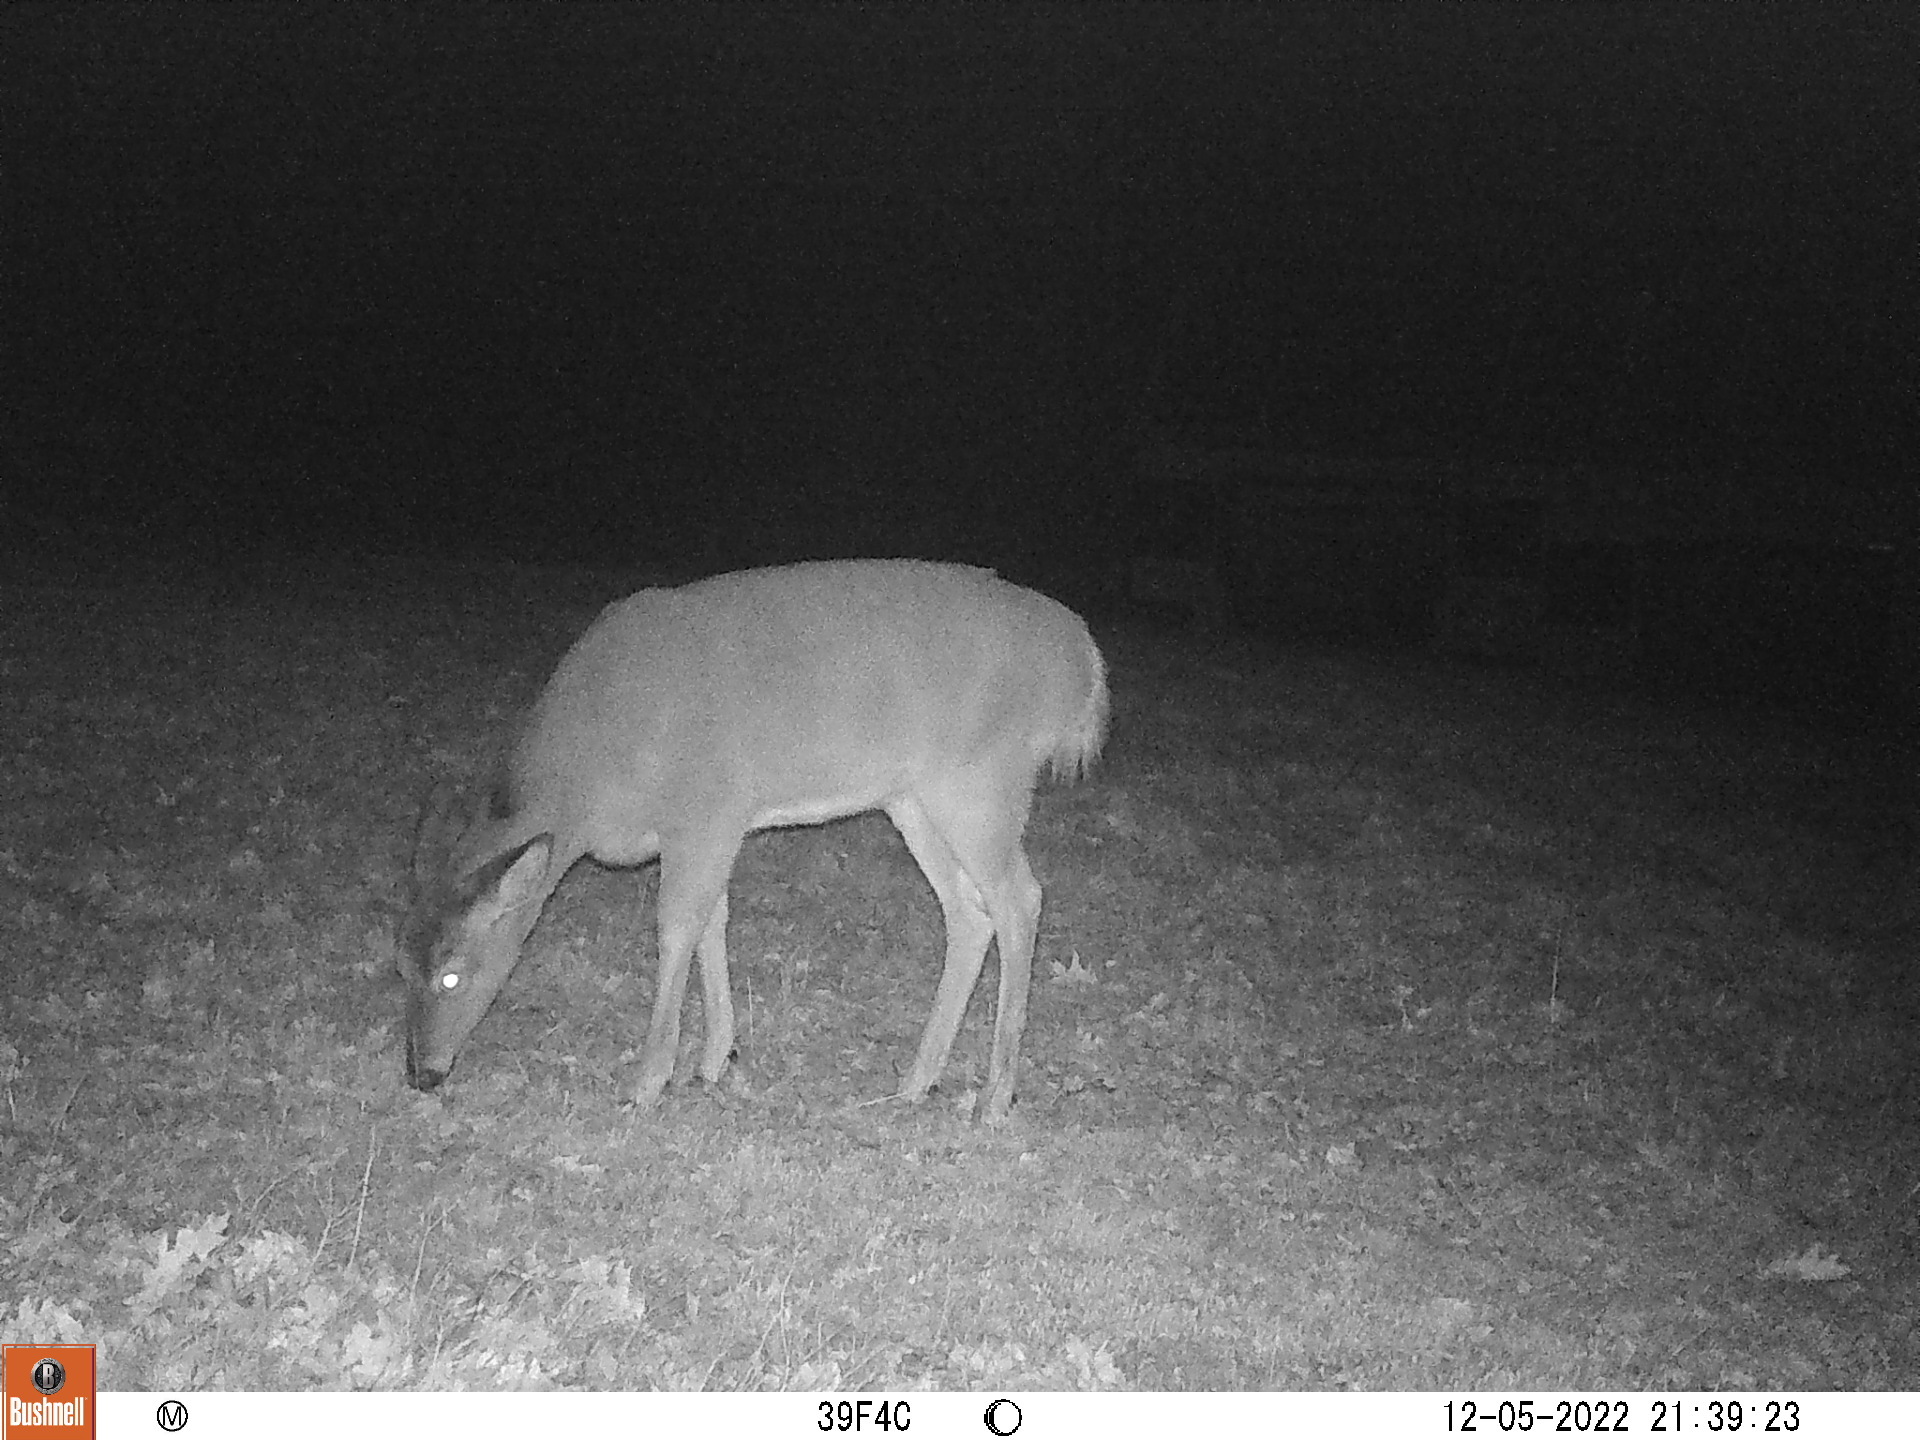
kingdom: Animalia
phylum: Chordata
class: Mammalia
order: Artiodactyla
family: Cervidae
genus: Odocoileus
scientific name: Odocoileus virginianus
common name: White-tailed deer
